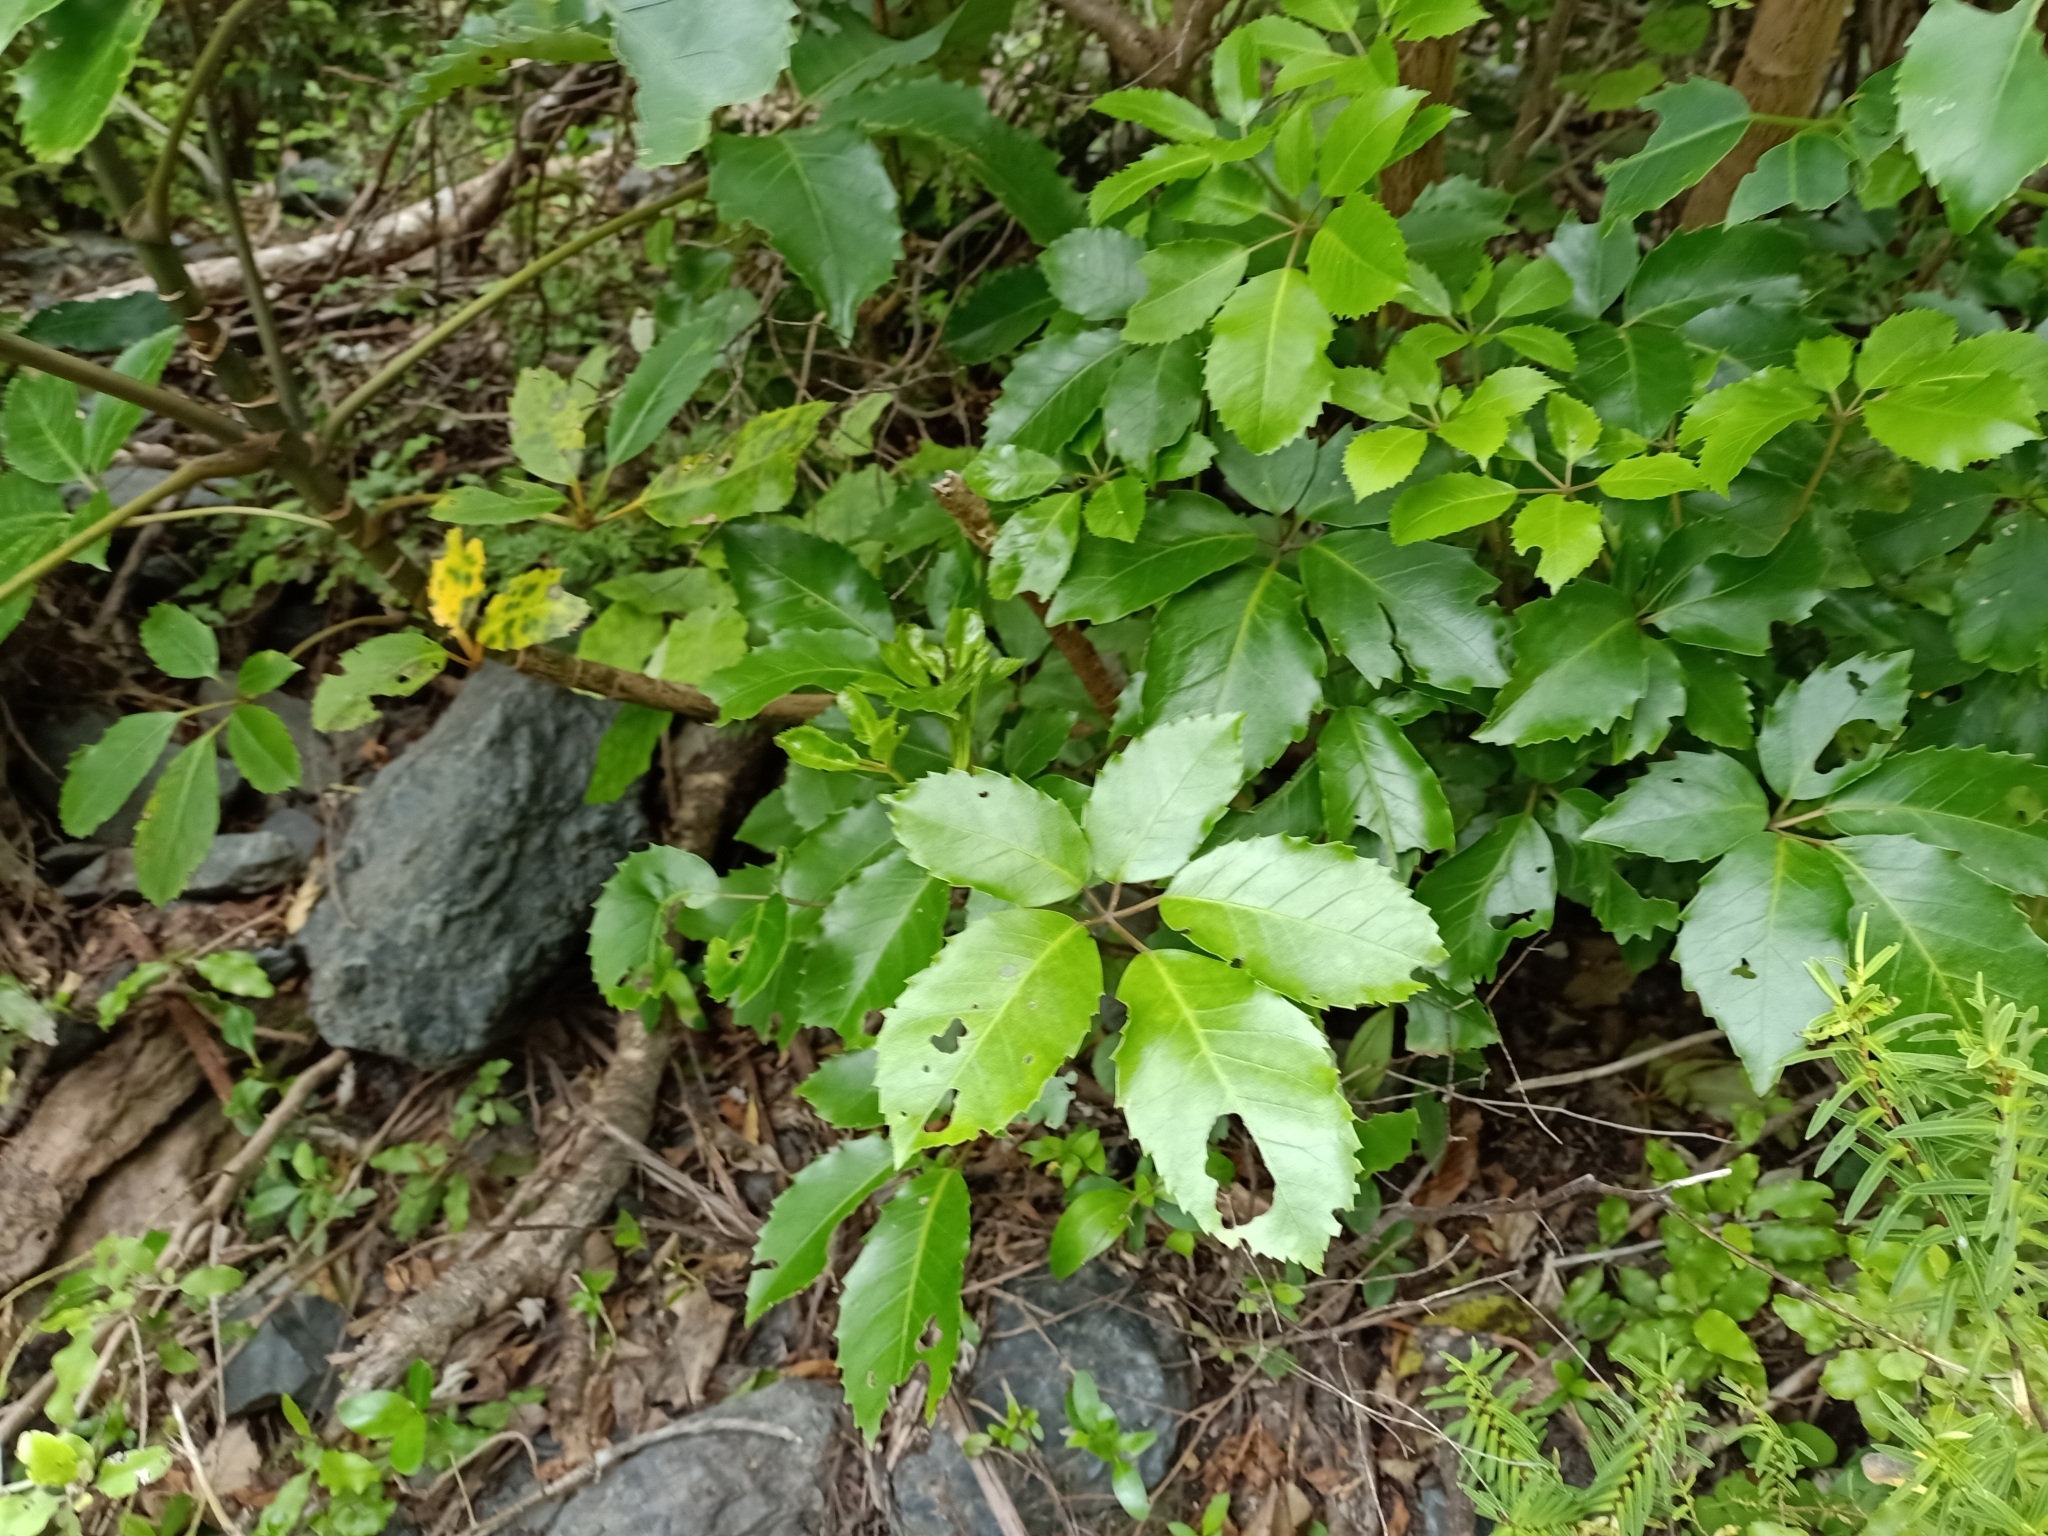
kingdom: Plantae
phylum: Tracheophyta
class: Magnoliopsida
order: Apiales
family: Araliaceae
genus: Neopanax
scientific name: Neopanax arboreus
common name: Five-fingers
